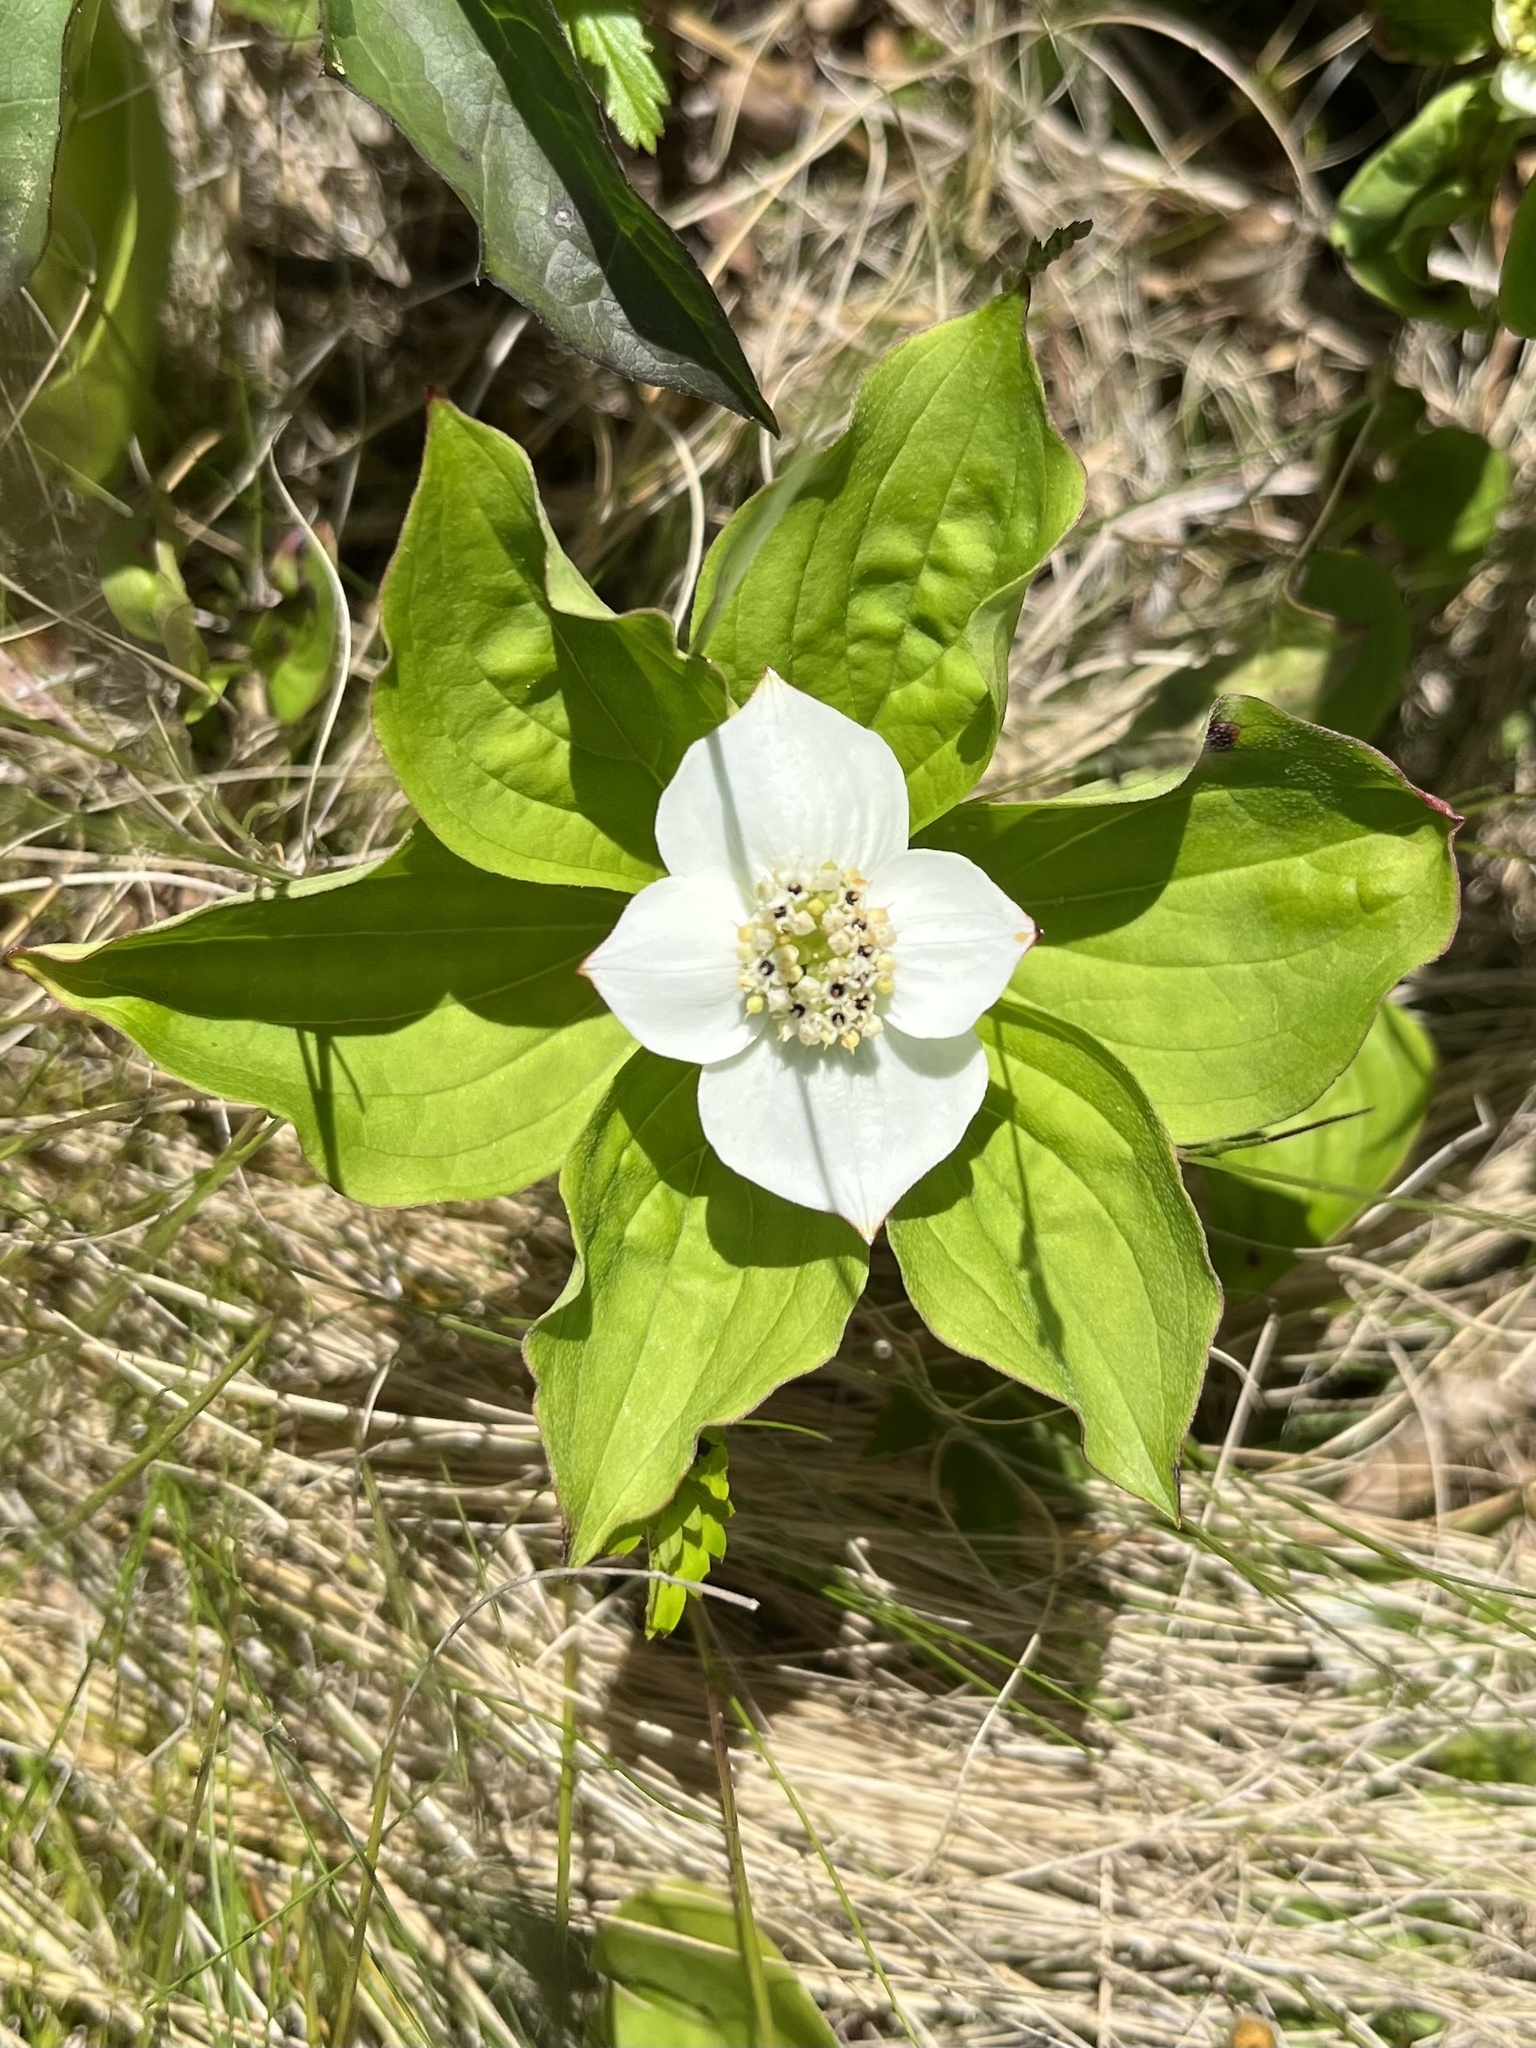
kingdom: Plantae
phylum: Tracheophyta
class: Magnoliopsida
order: Cornales
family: Cornaceae
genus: Cornus
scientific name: Cornus canadensis
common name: Creeping dogwood
